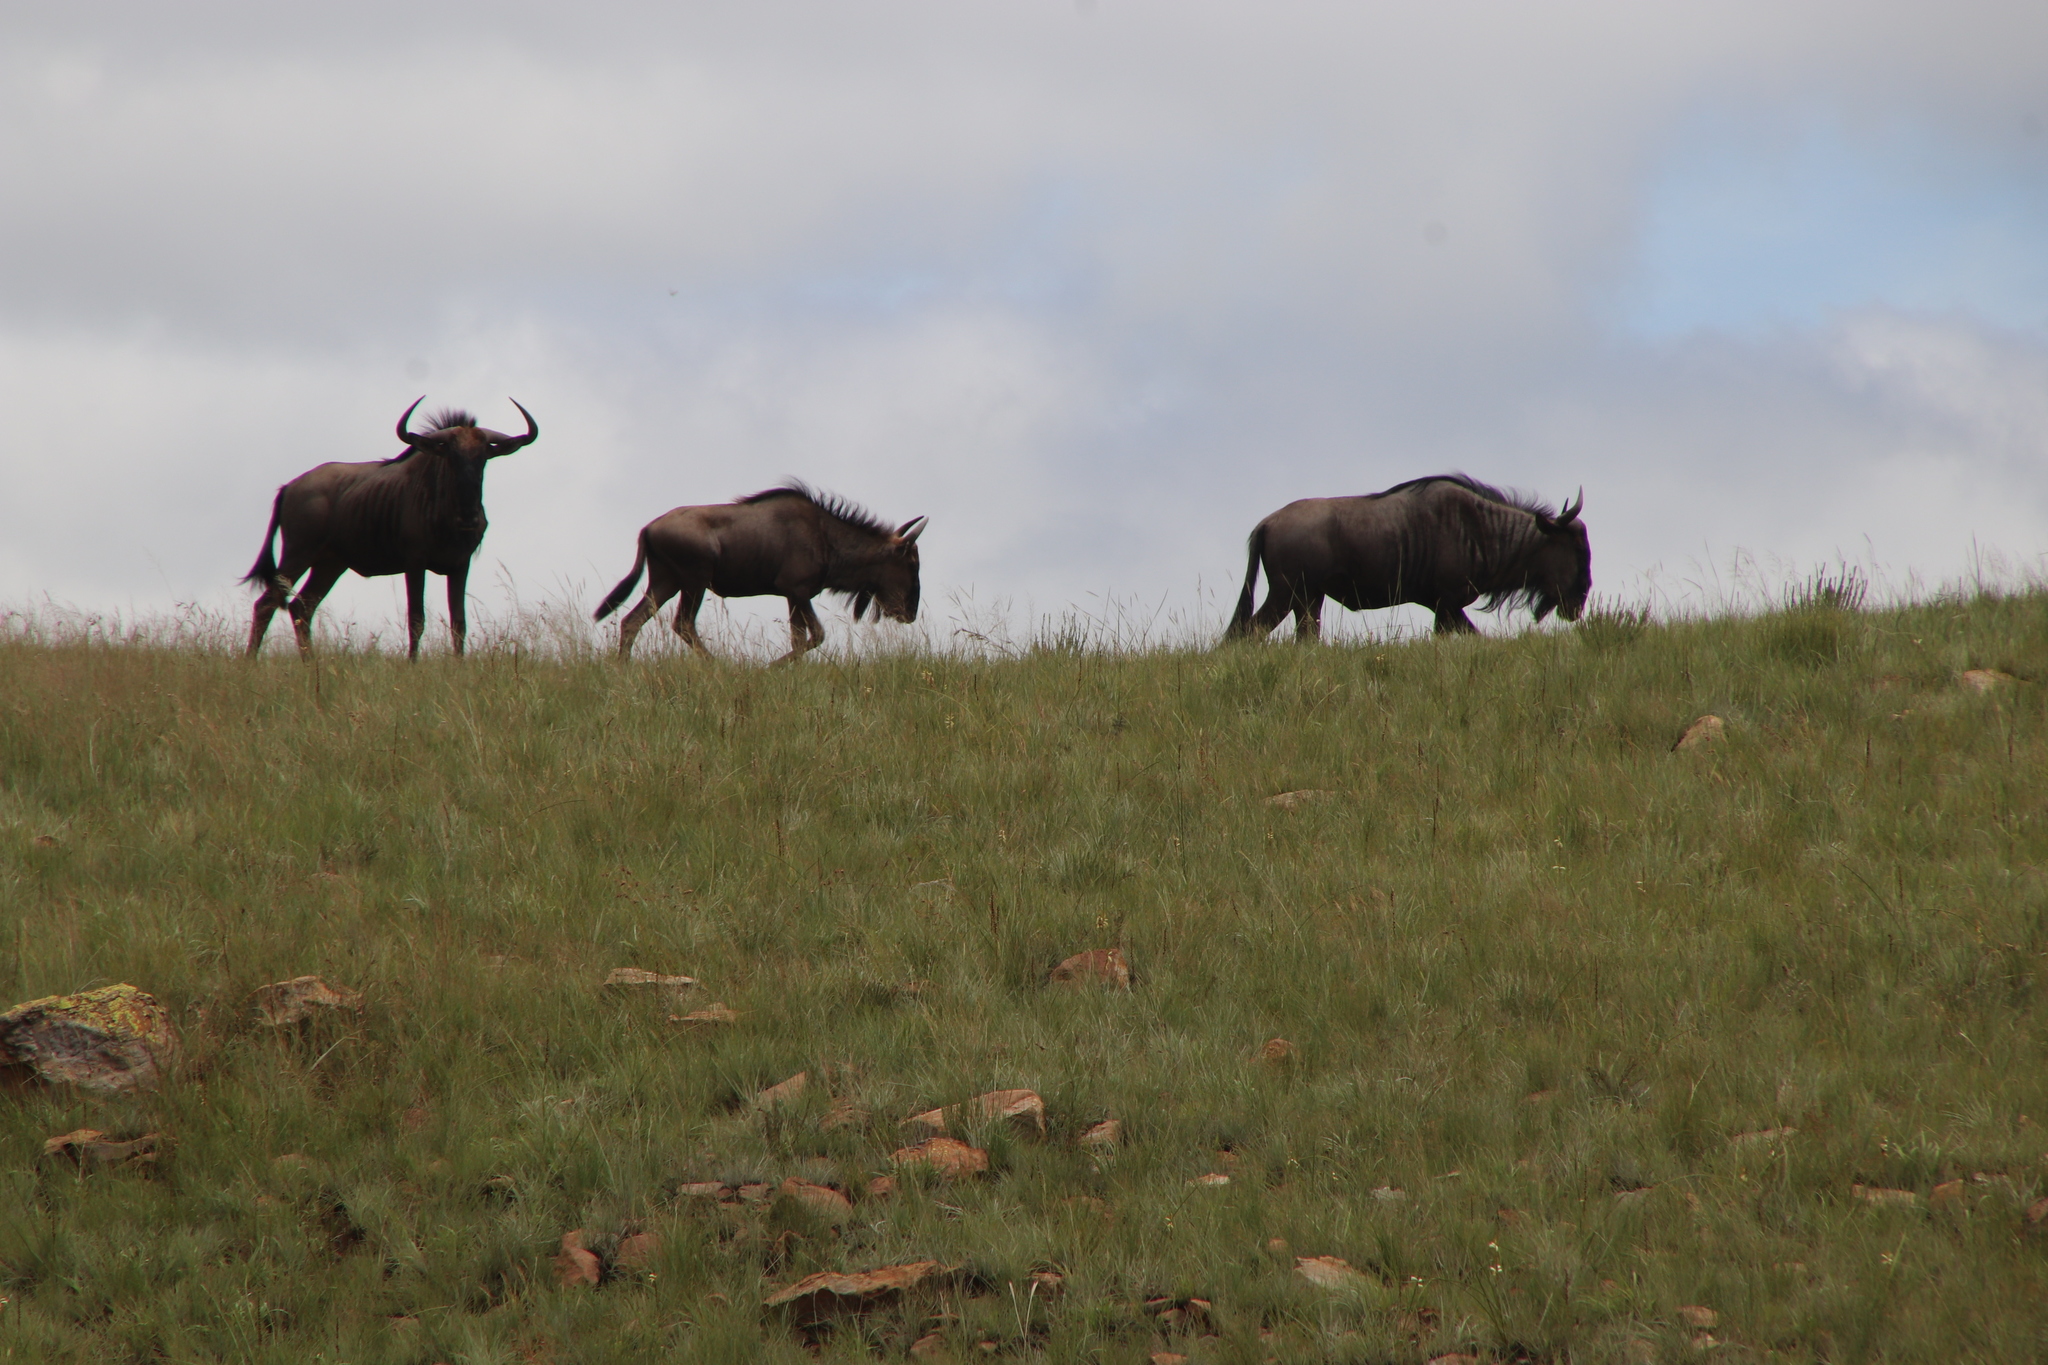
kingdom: Animalia
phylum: Chordata
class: Mammalia
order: Artiodactyla
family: Bovidae
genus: Connochaetes
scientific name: Connochaetes taurinus
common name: Blue wildebeest
